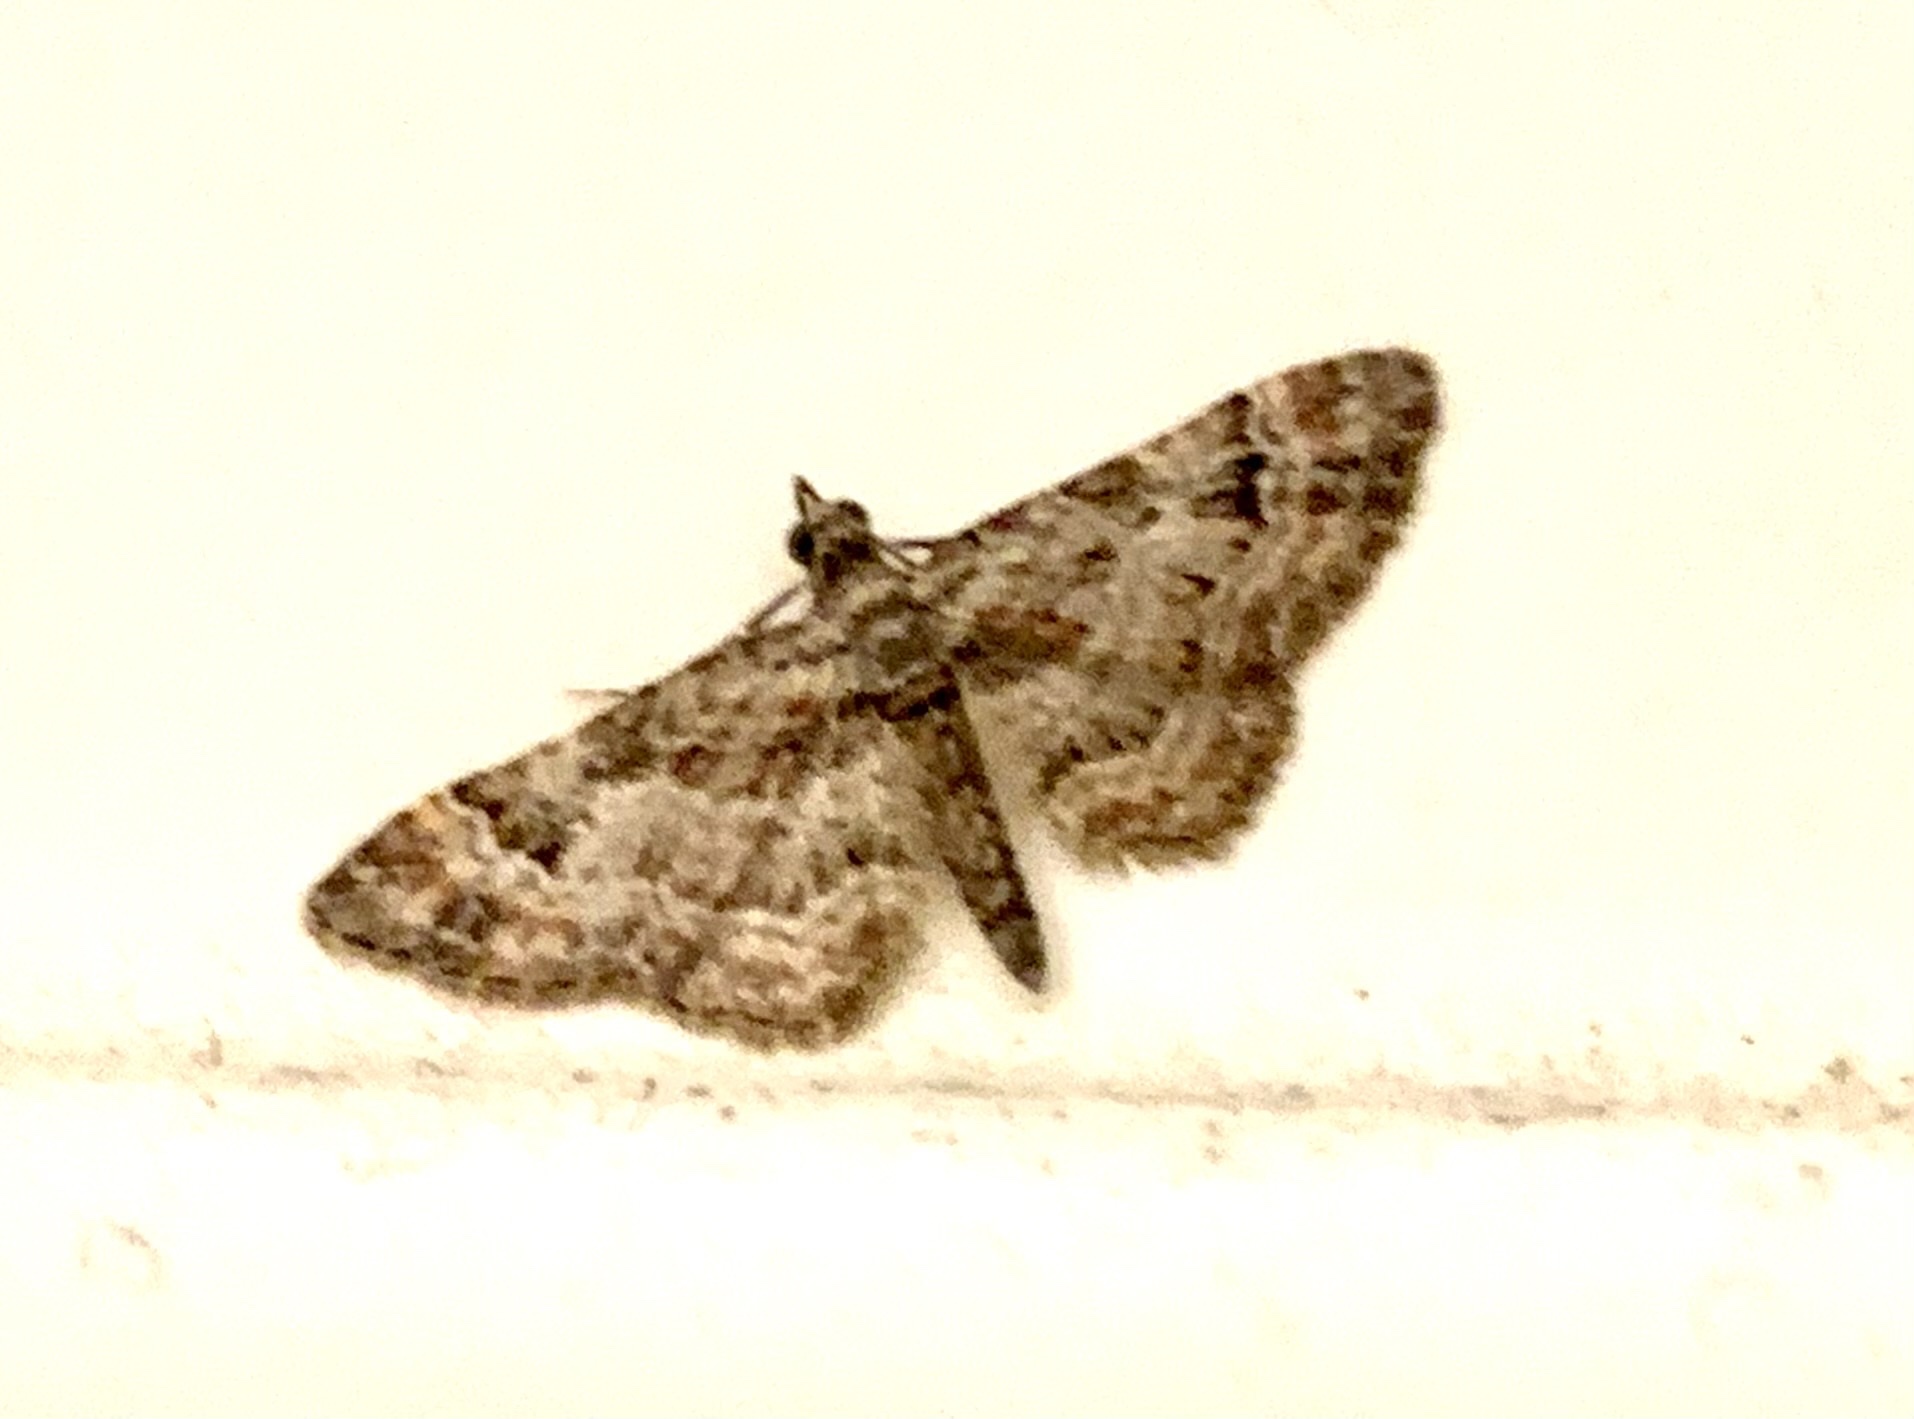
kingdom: Animalia
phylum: Arthropoda
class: Insecta
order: Lepidoptera
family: Geometridae
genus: Gymnoscelis
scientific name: Gymnoscelis rufifasciata
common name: Double-striped pug
